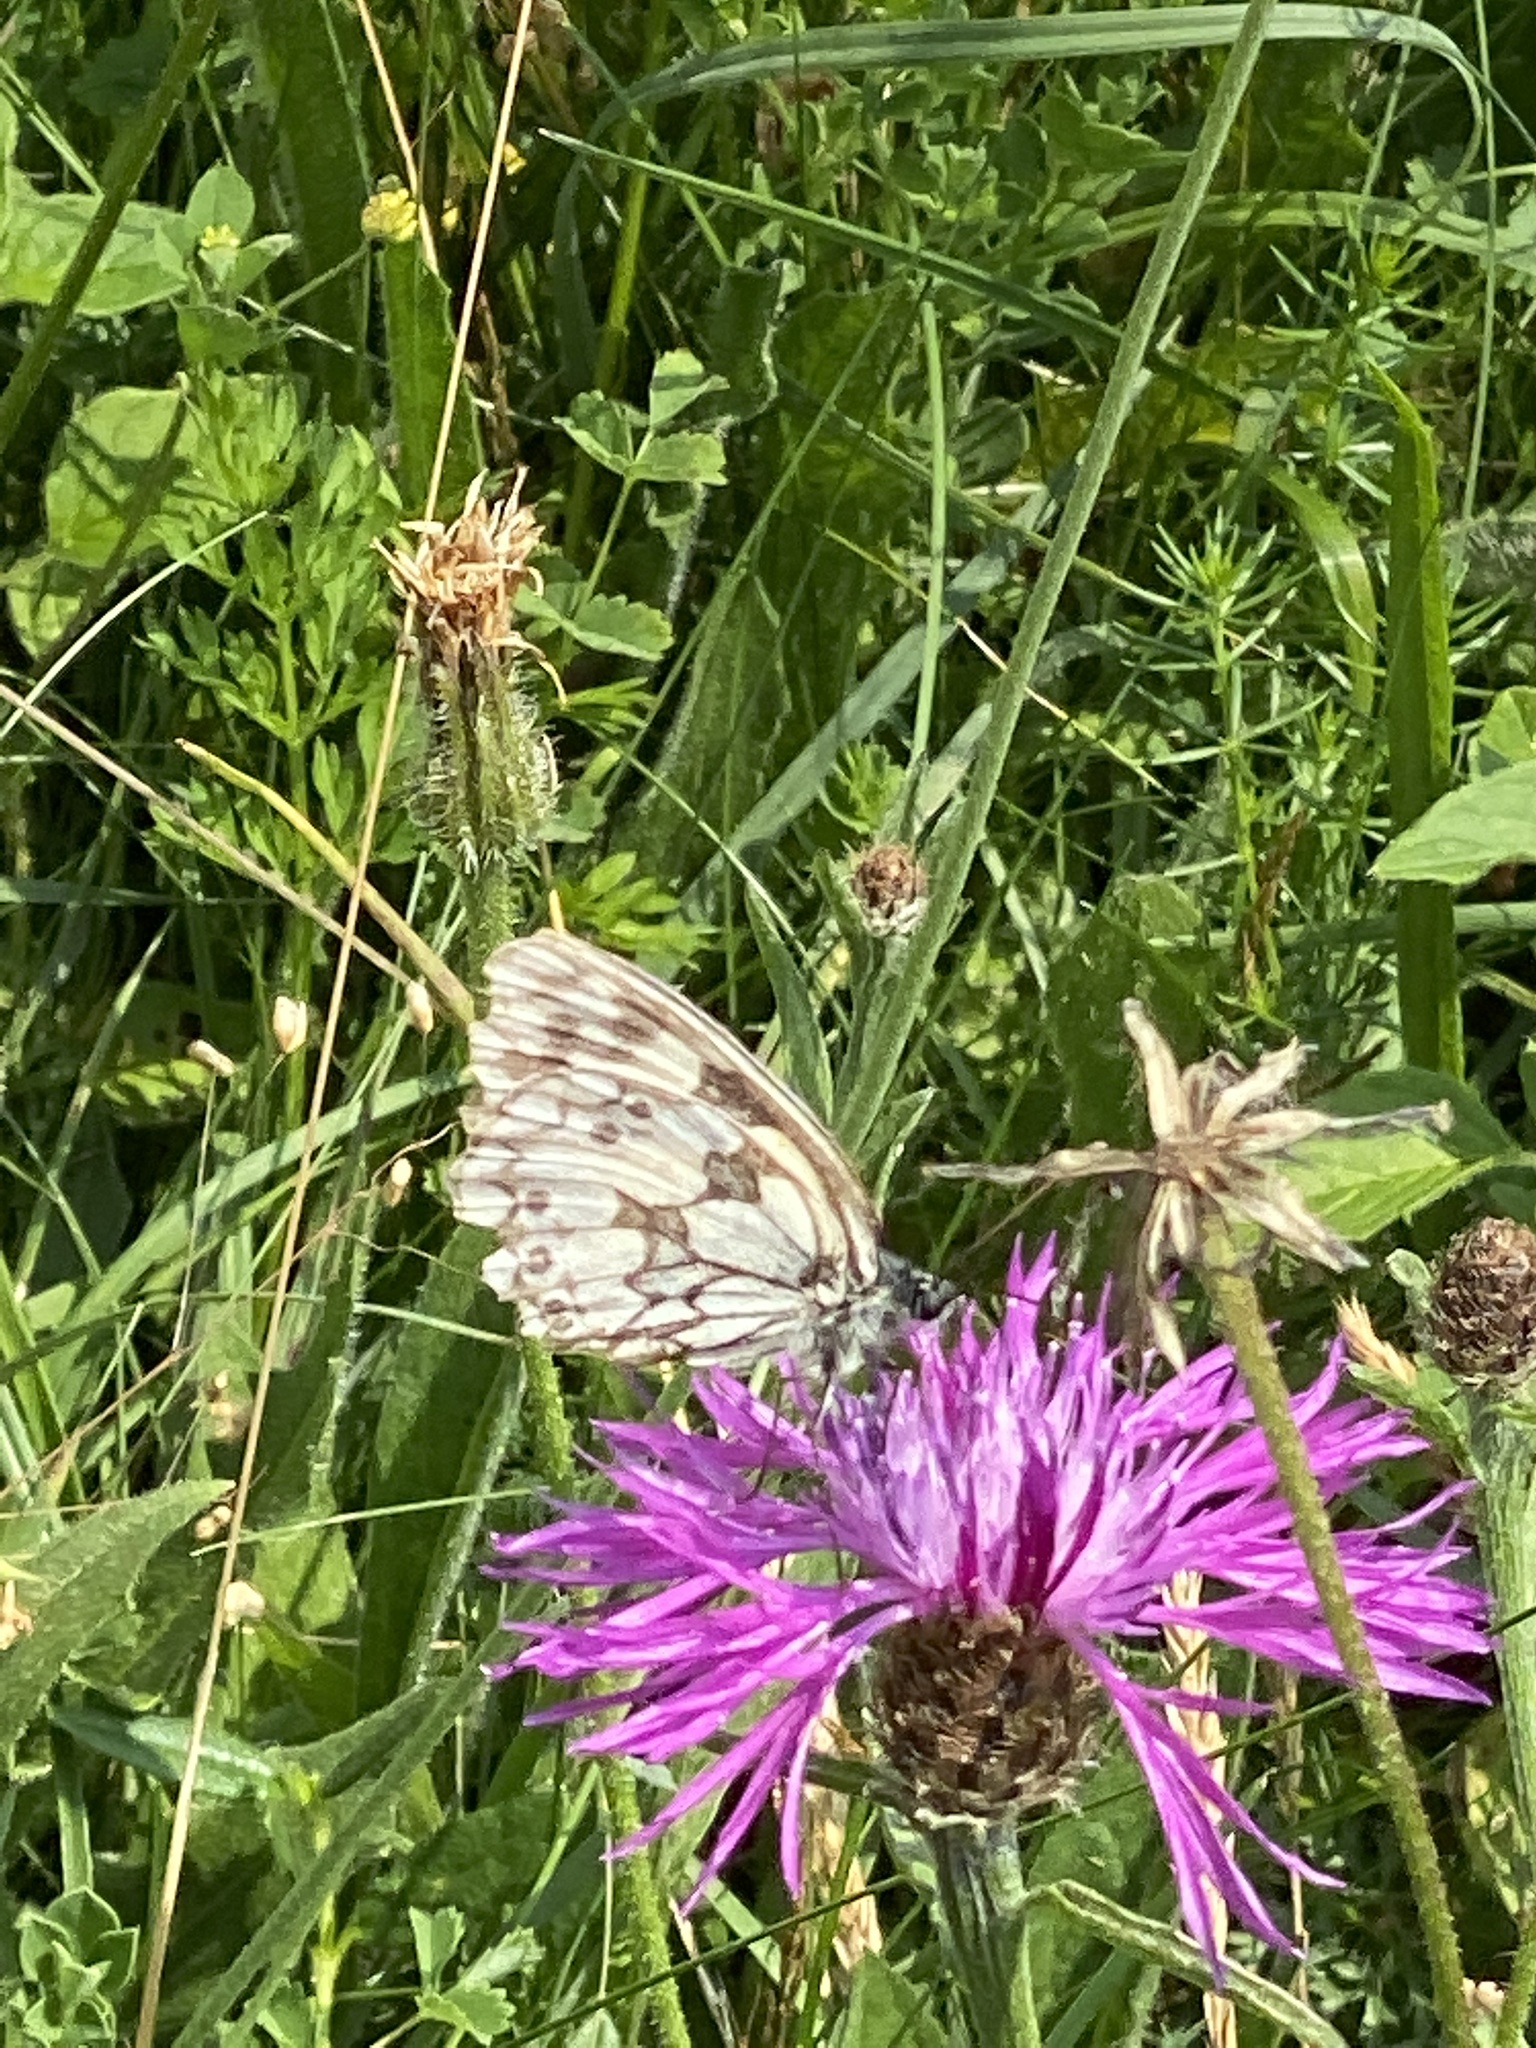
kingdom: Animalia
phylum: Arthropoda
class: Insecta
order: Lepidoptera
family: Nymphalidae
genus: Melanargia
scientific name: Melanargia galathea
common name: Marbled white
